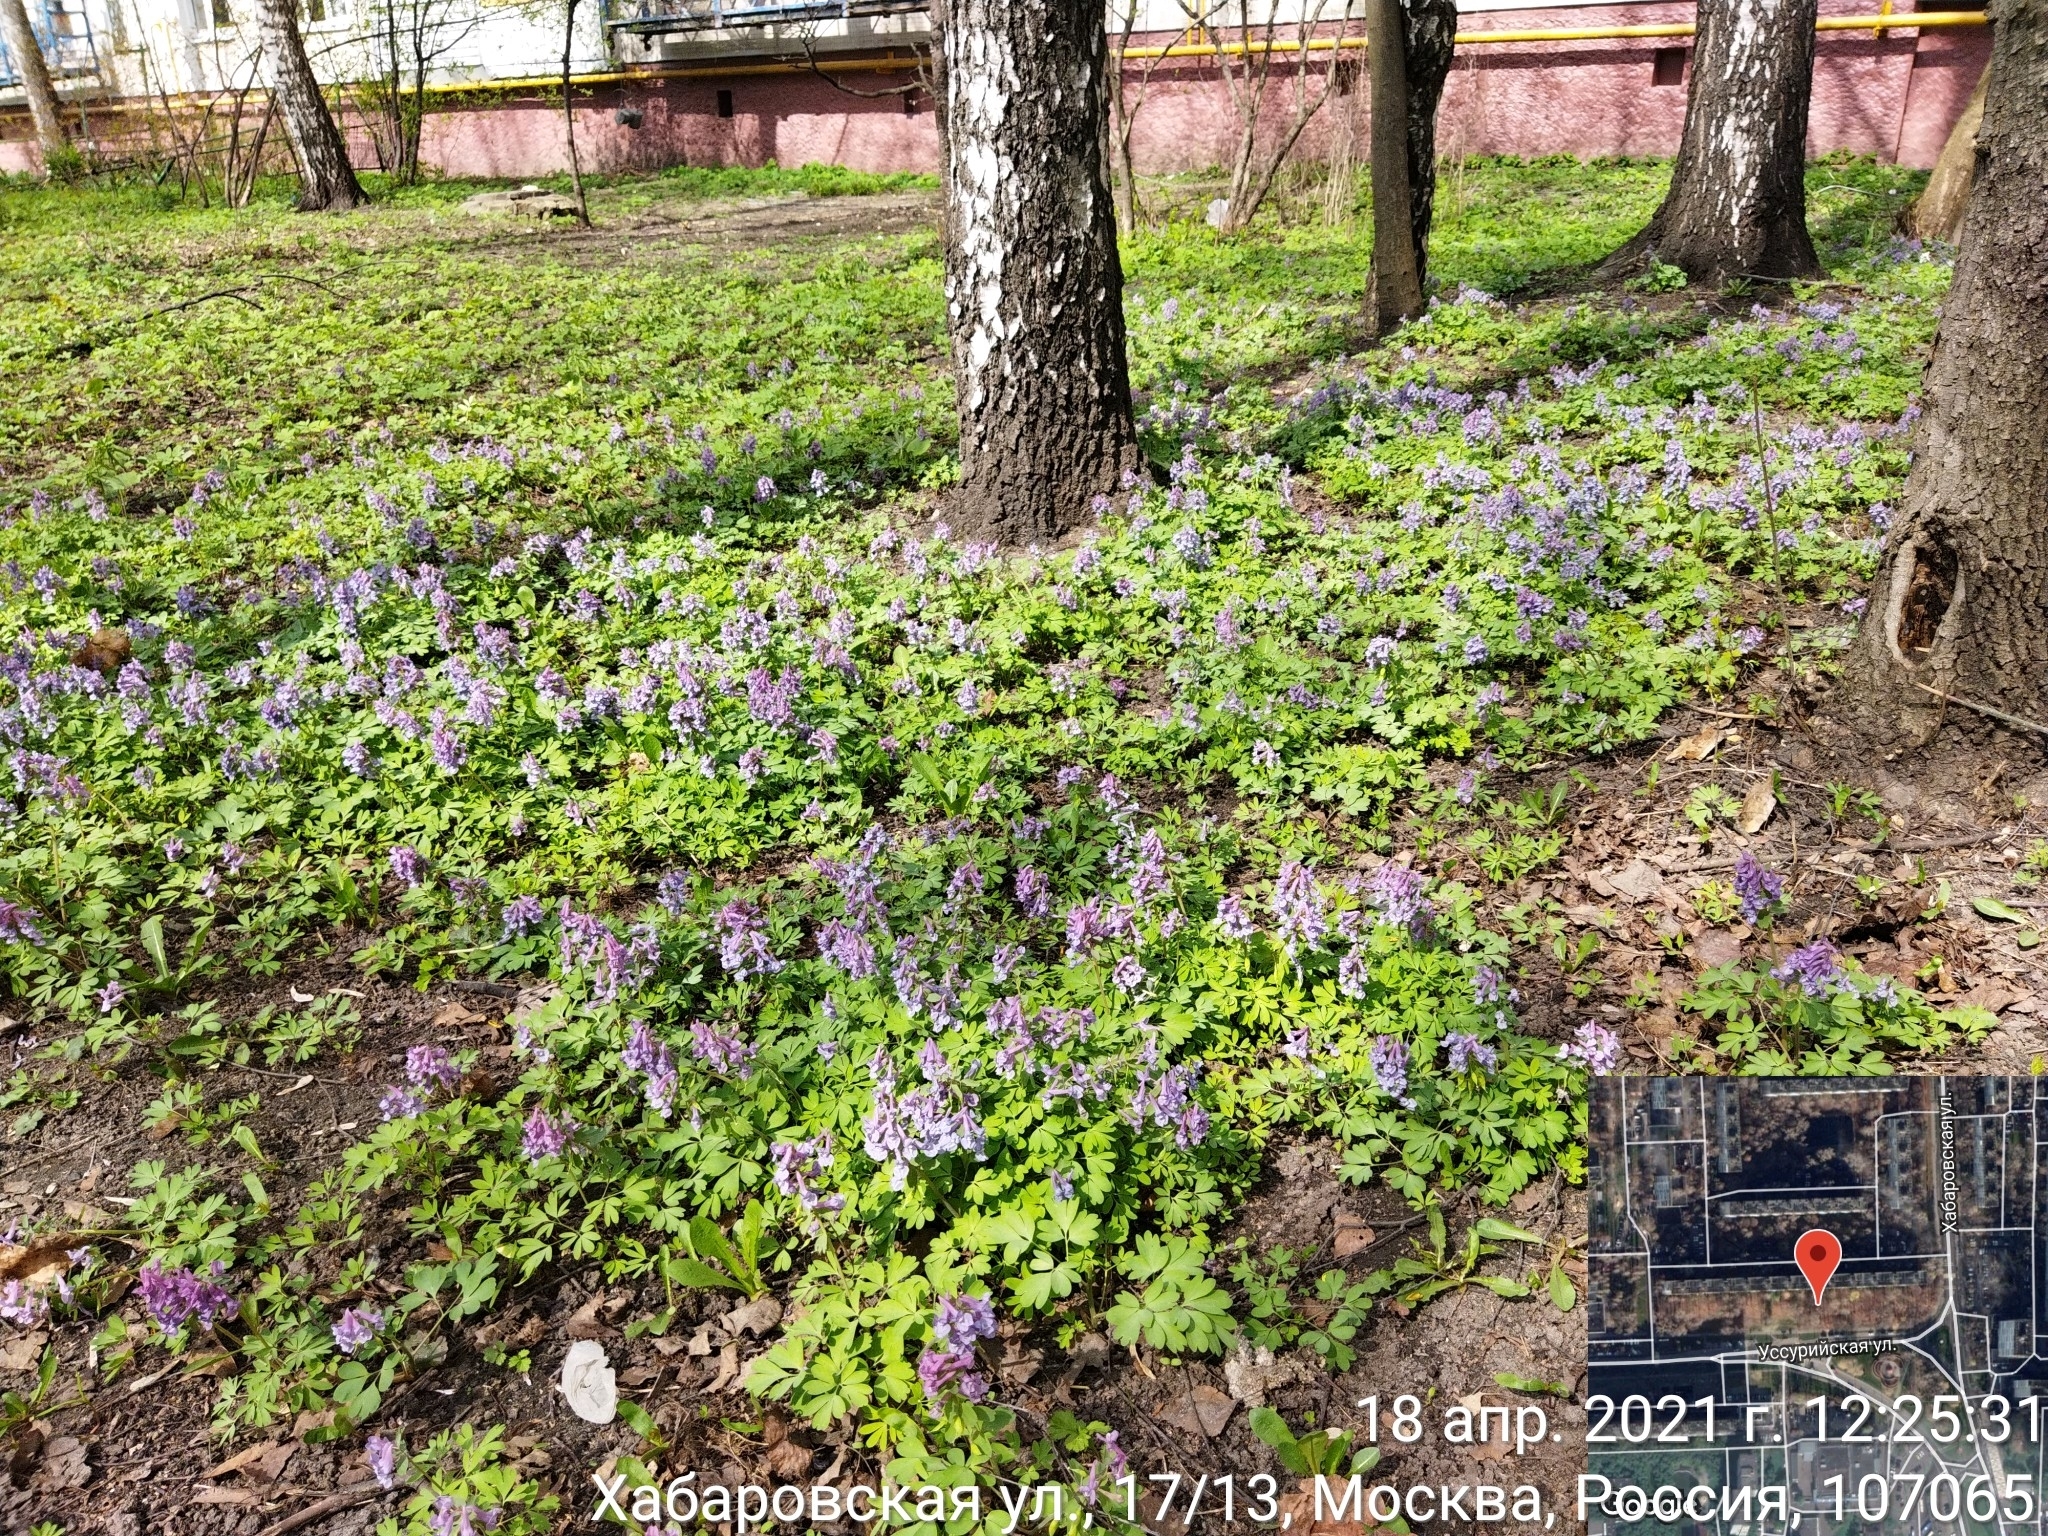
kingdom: Plantae
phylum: Tracheophyta
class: Magnoliopsida
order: Ranunculales
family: Papaveraceae
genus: Corydalis
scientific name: Corydalis solida
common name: Bird-in-a-bush
